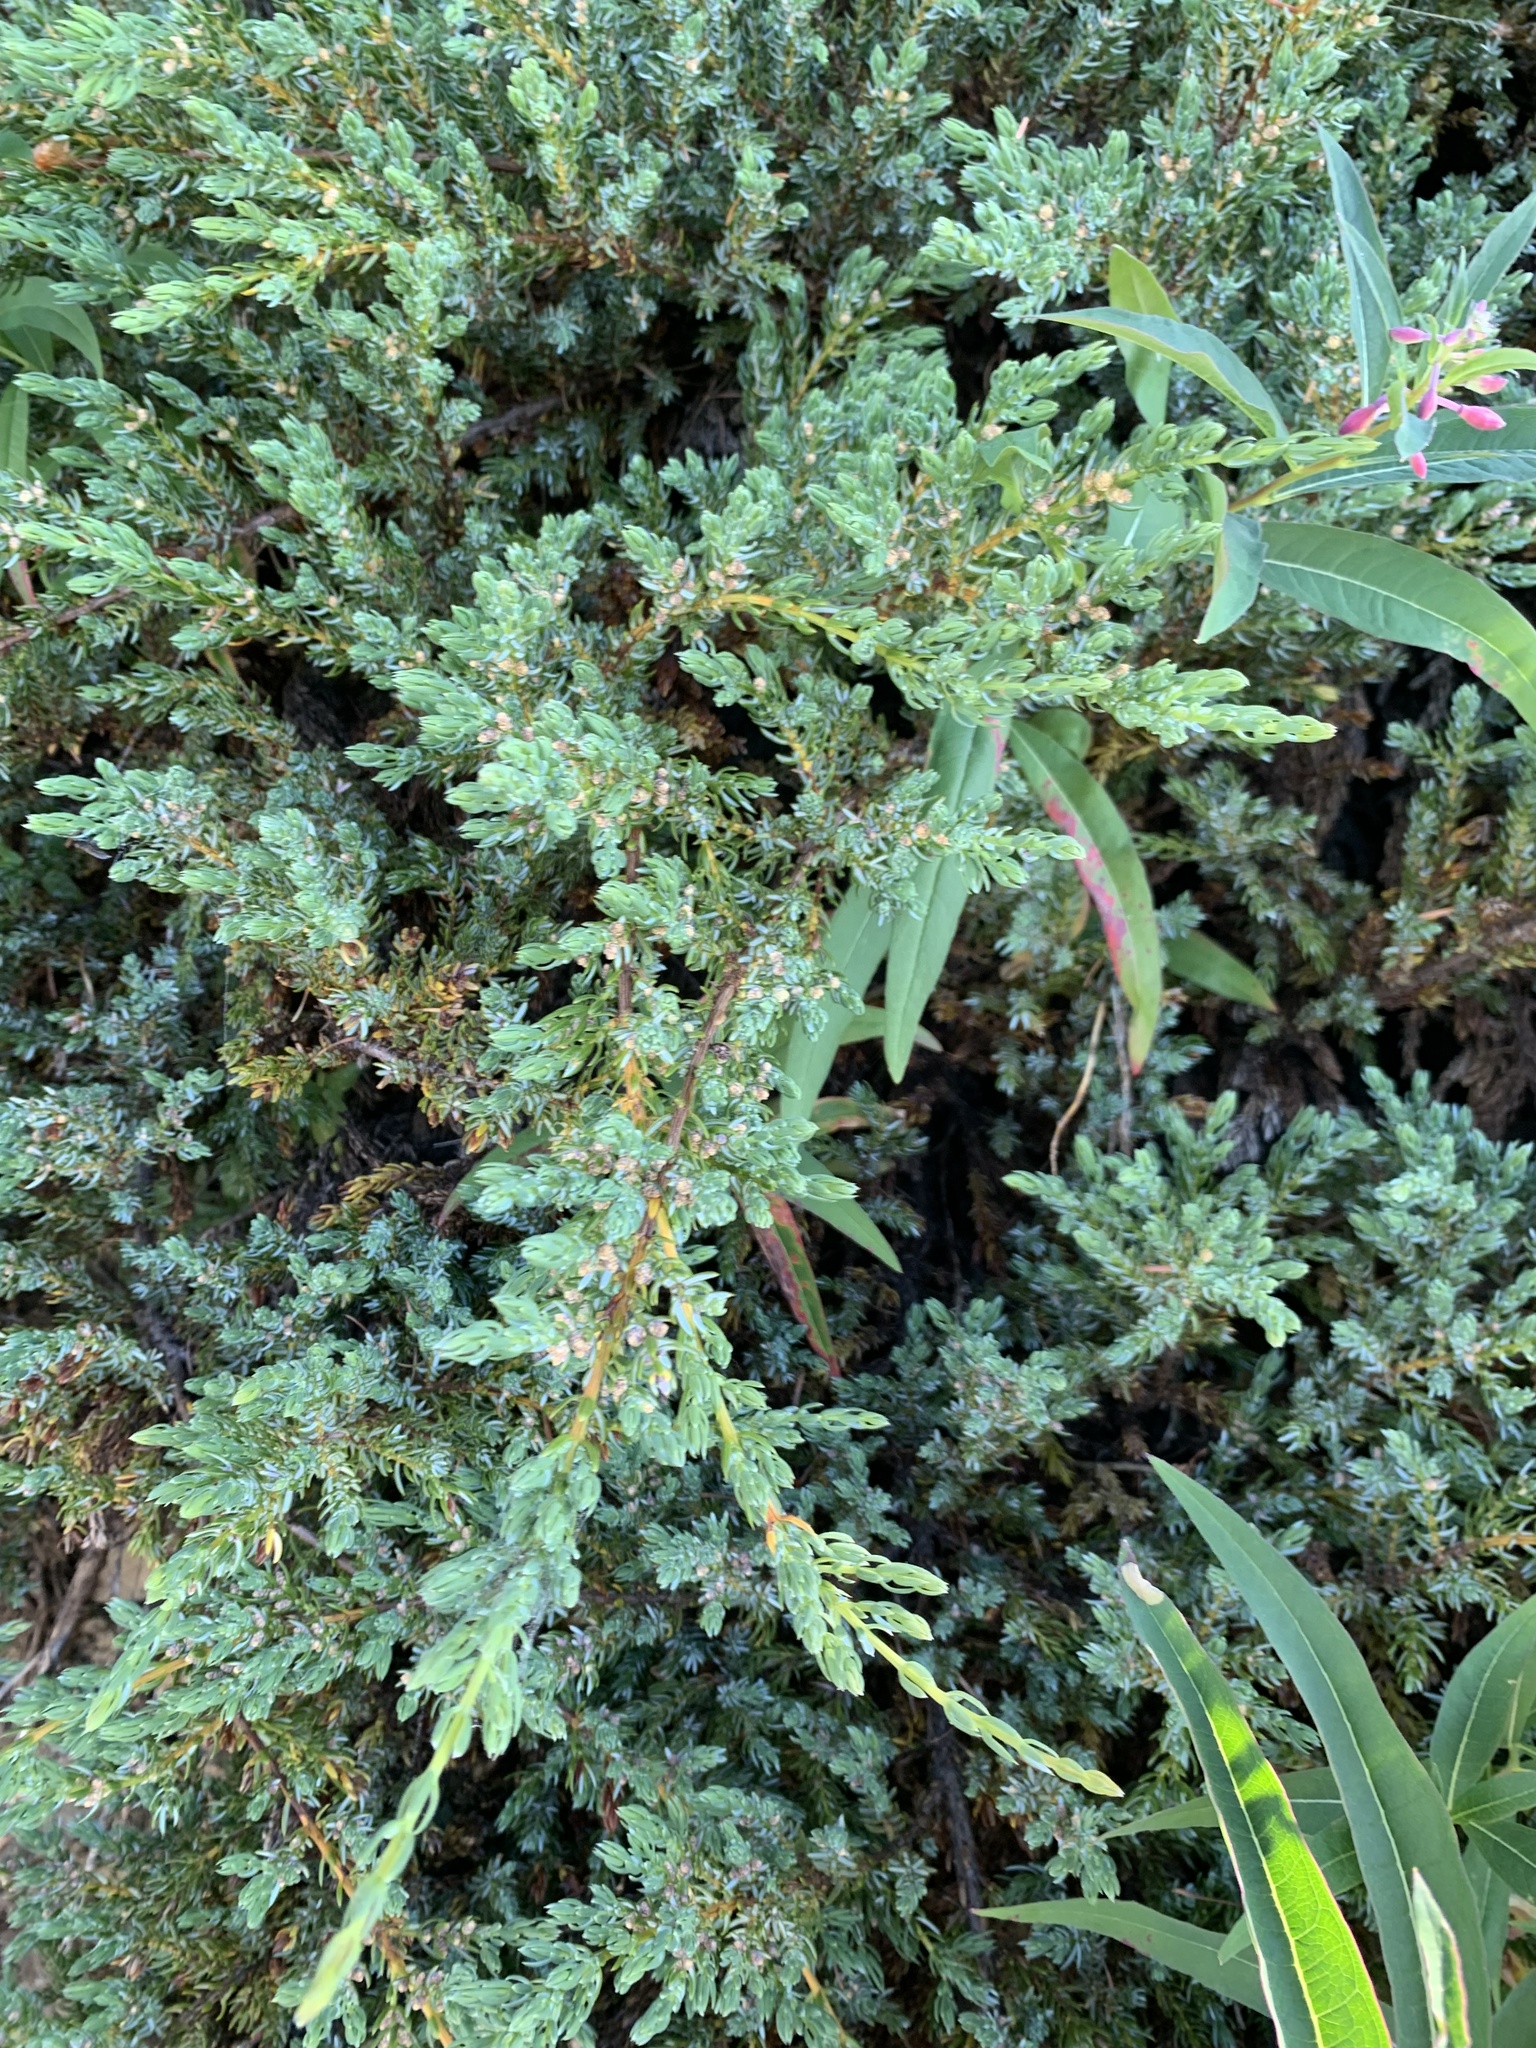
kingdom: Plantae
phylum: Tracheophyta
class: Pinopsida
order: Pinales
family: Cupressaceae
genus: Juniperus
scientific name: Juniperus communis
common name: Common juniper
